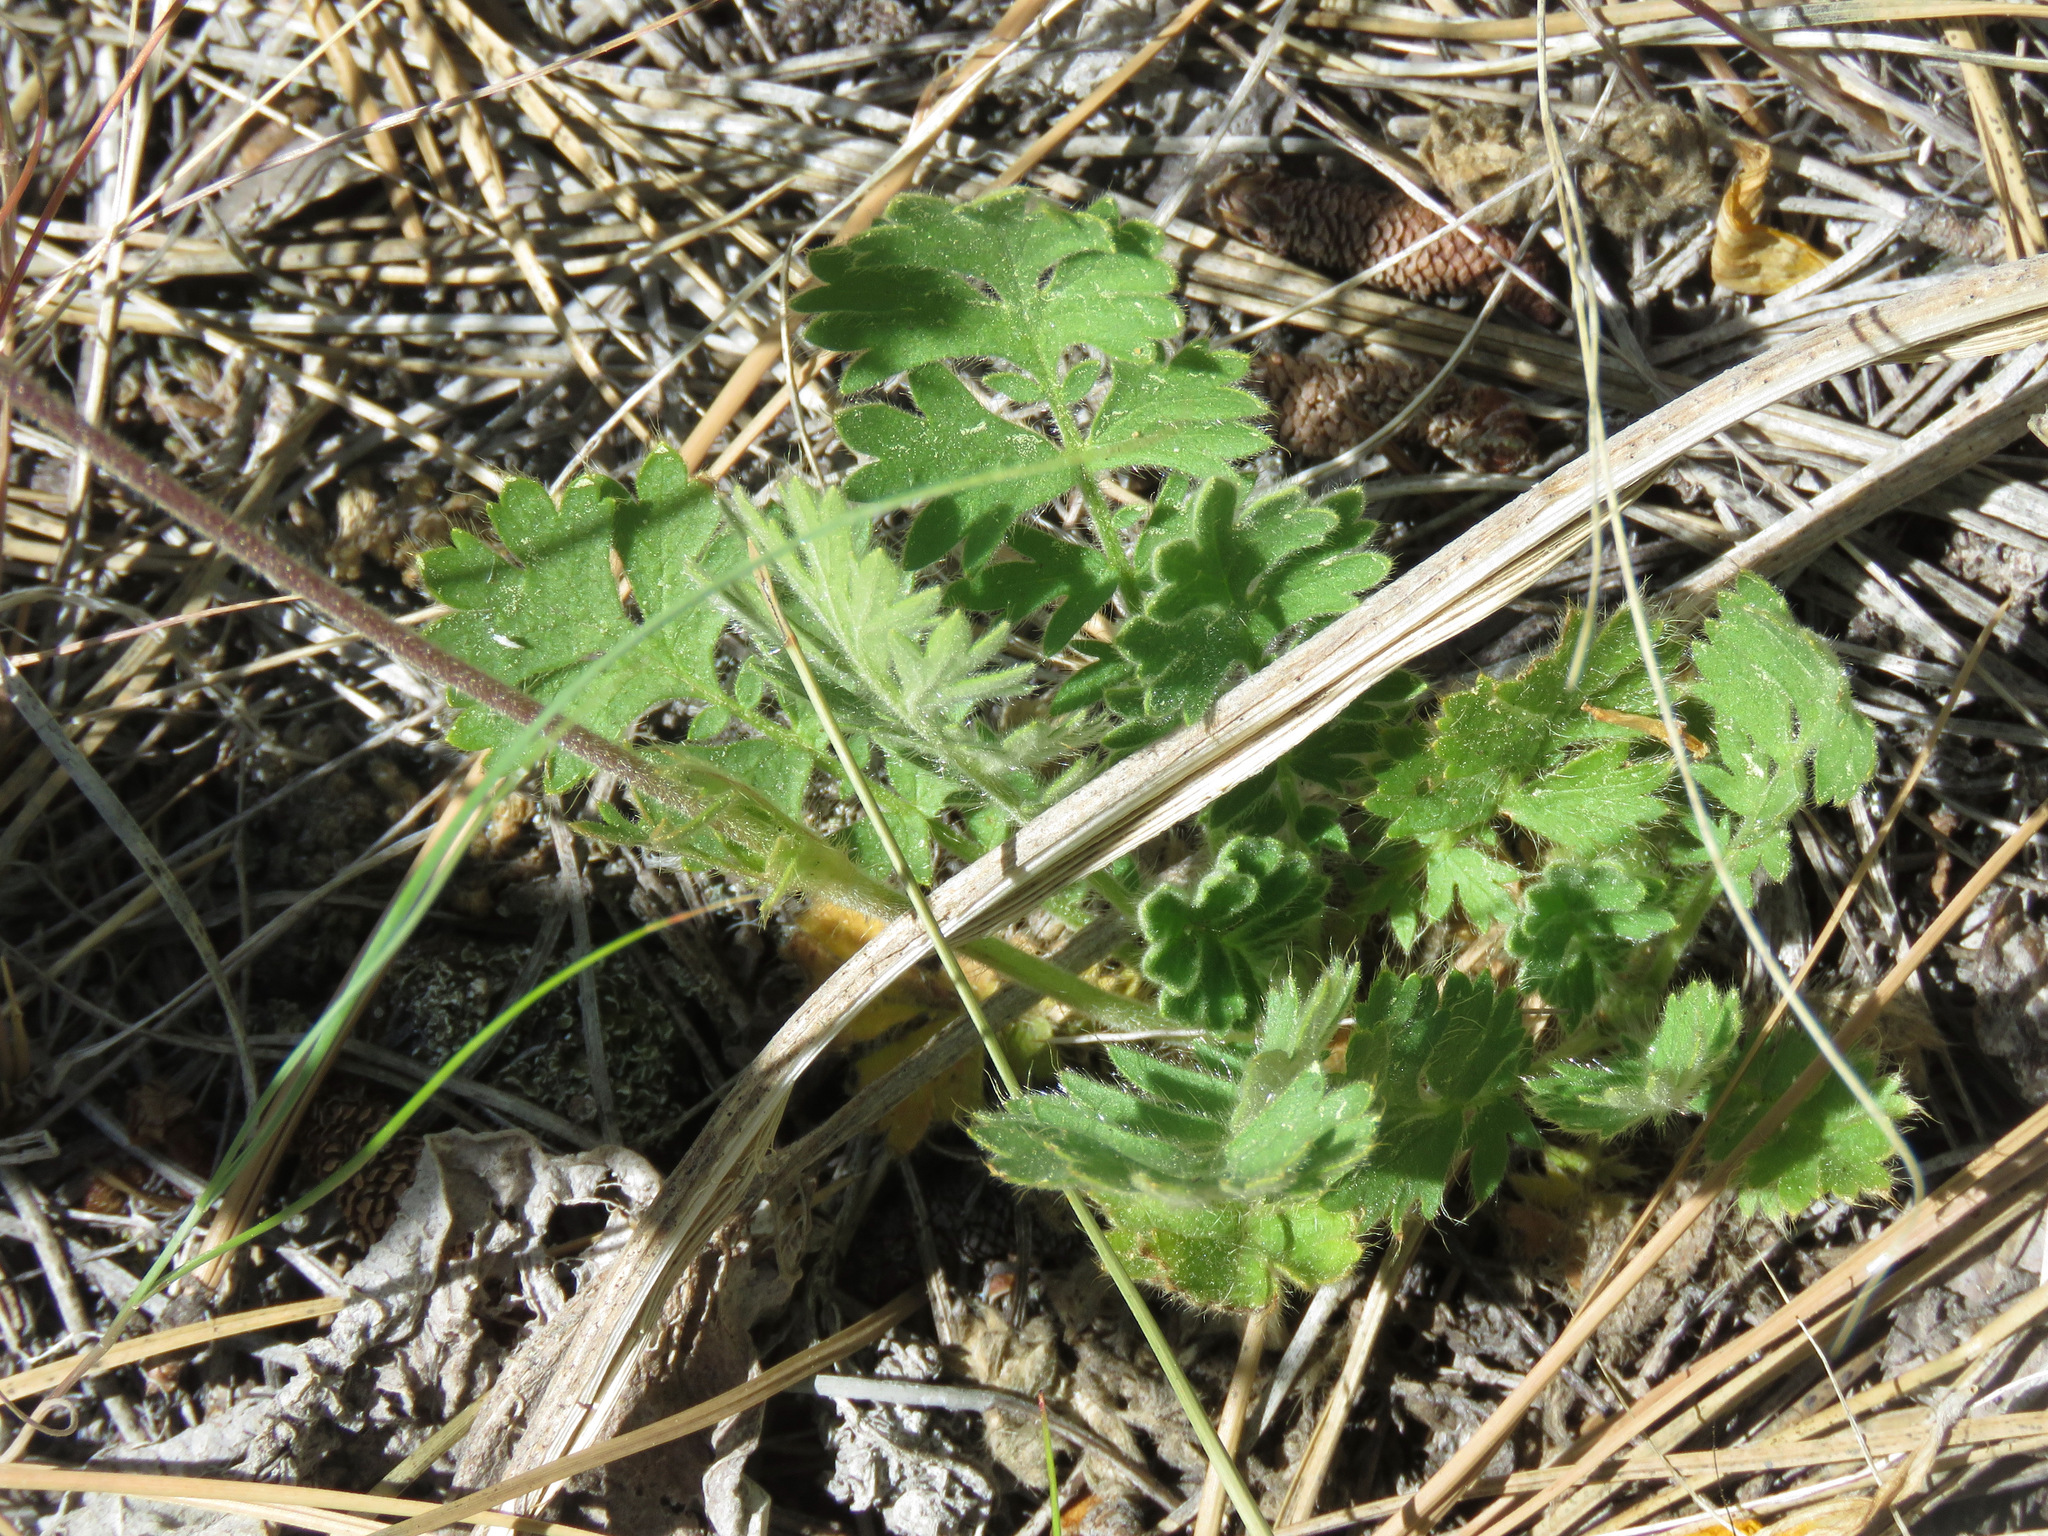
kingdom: Plantae
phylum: Tracheophyta
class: Magnoliopsida
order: Rosales
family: Rosaceae
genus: Geum
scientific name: Geum triflorum
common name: Old man's whiskers
